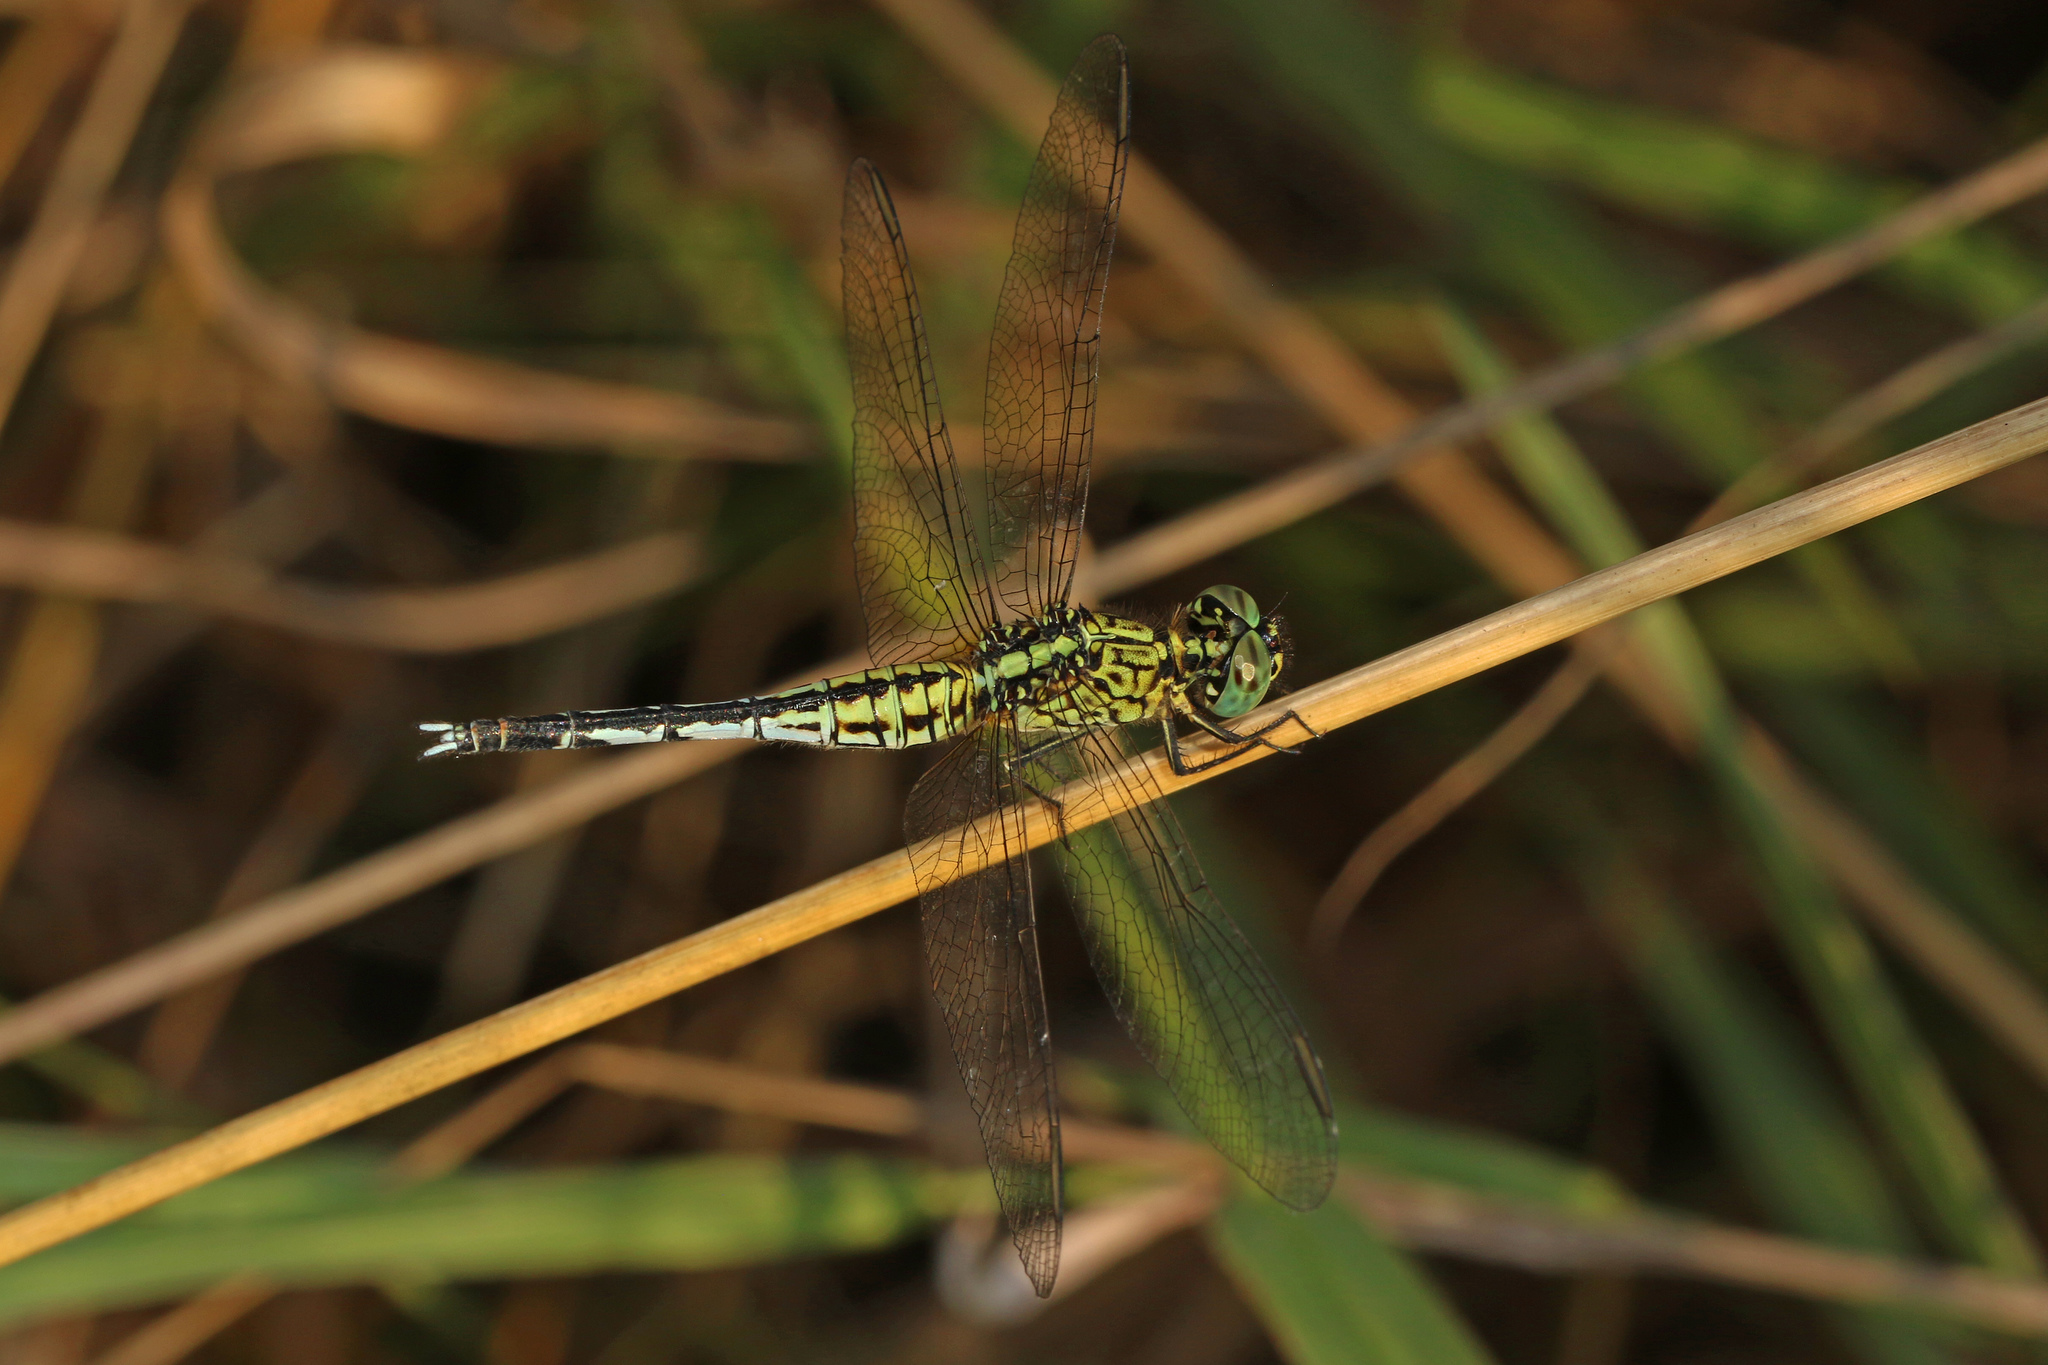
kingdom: Animalia
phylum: Arthropoda
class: Insecta
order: Odonata
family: Libellulidae
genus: Acisoma
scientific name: Acisoma variegatum
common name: Slender pintail
